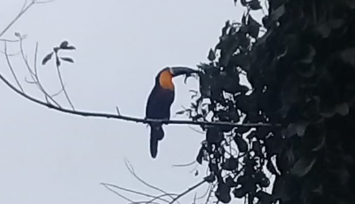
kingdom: Animalia
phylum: Chordata
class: Aves
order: Piciformes
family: Ramphastidae
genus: Ramphastos
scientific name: Ramphastos vitellinus
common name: Channel-billed toucan
